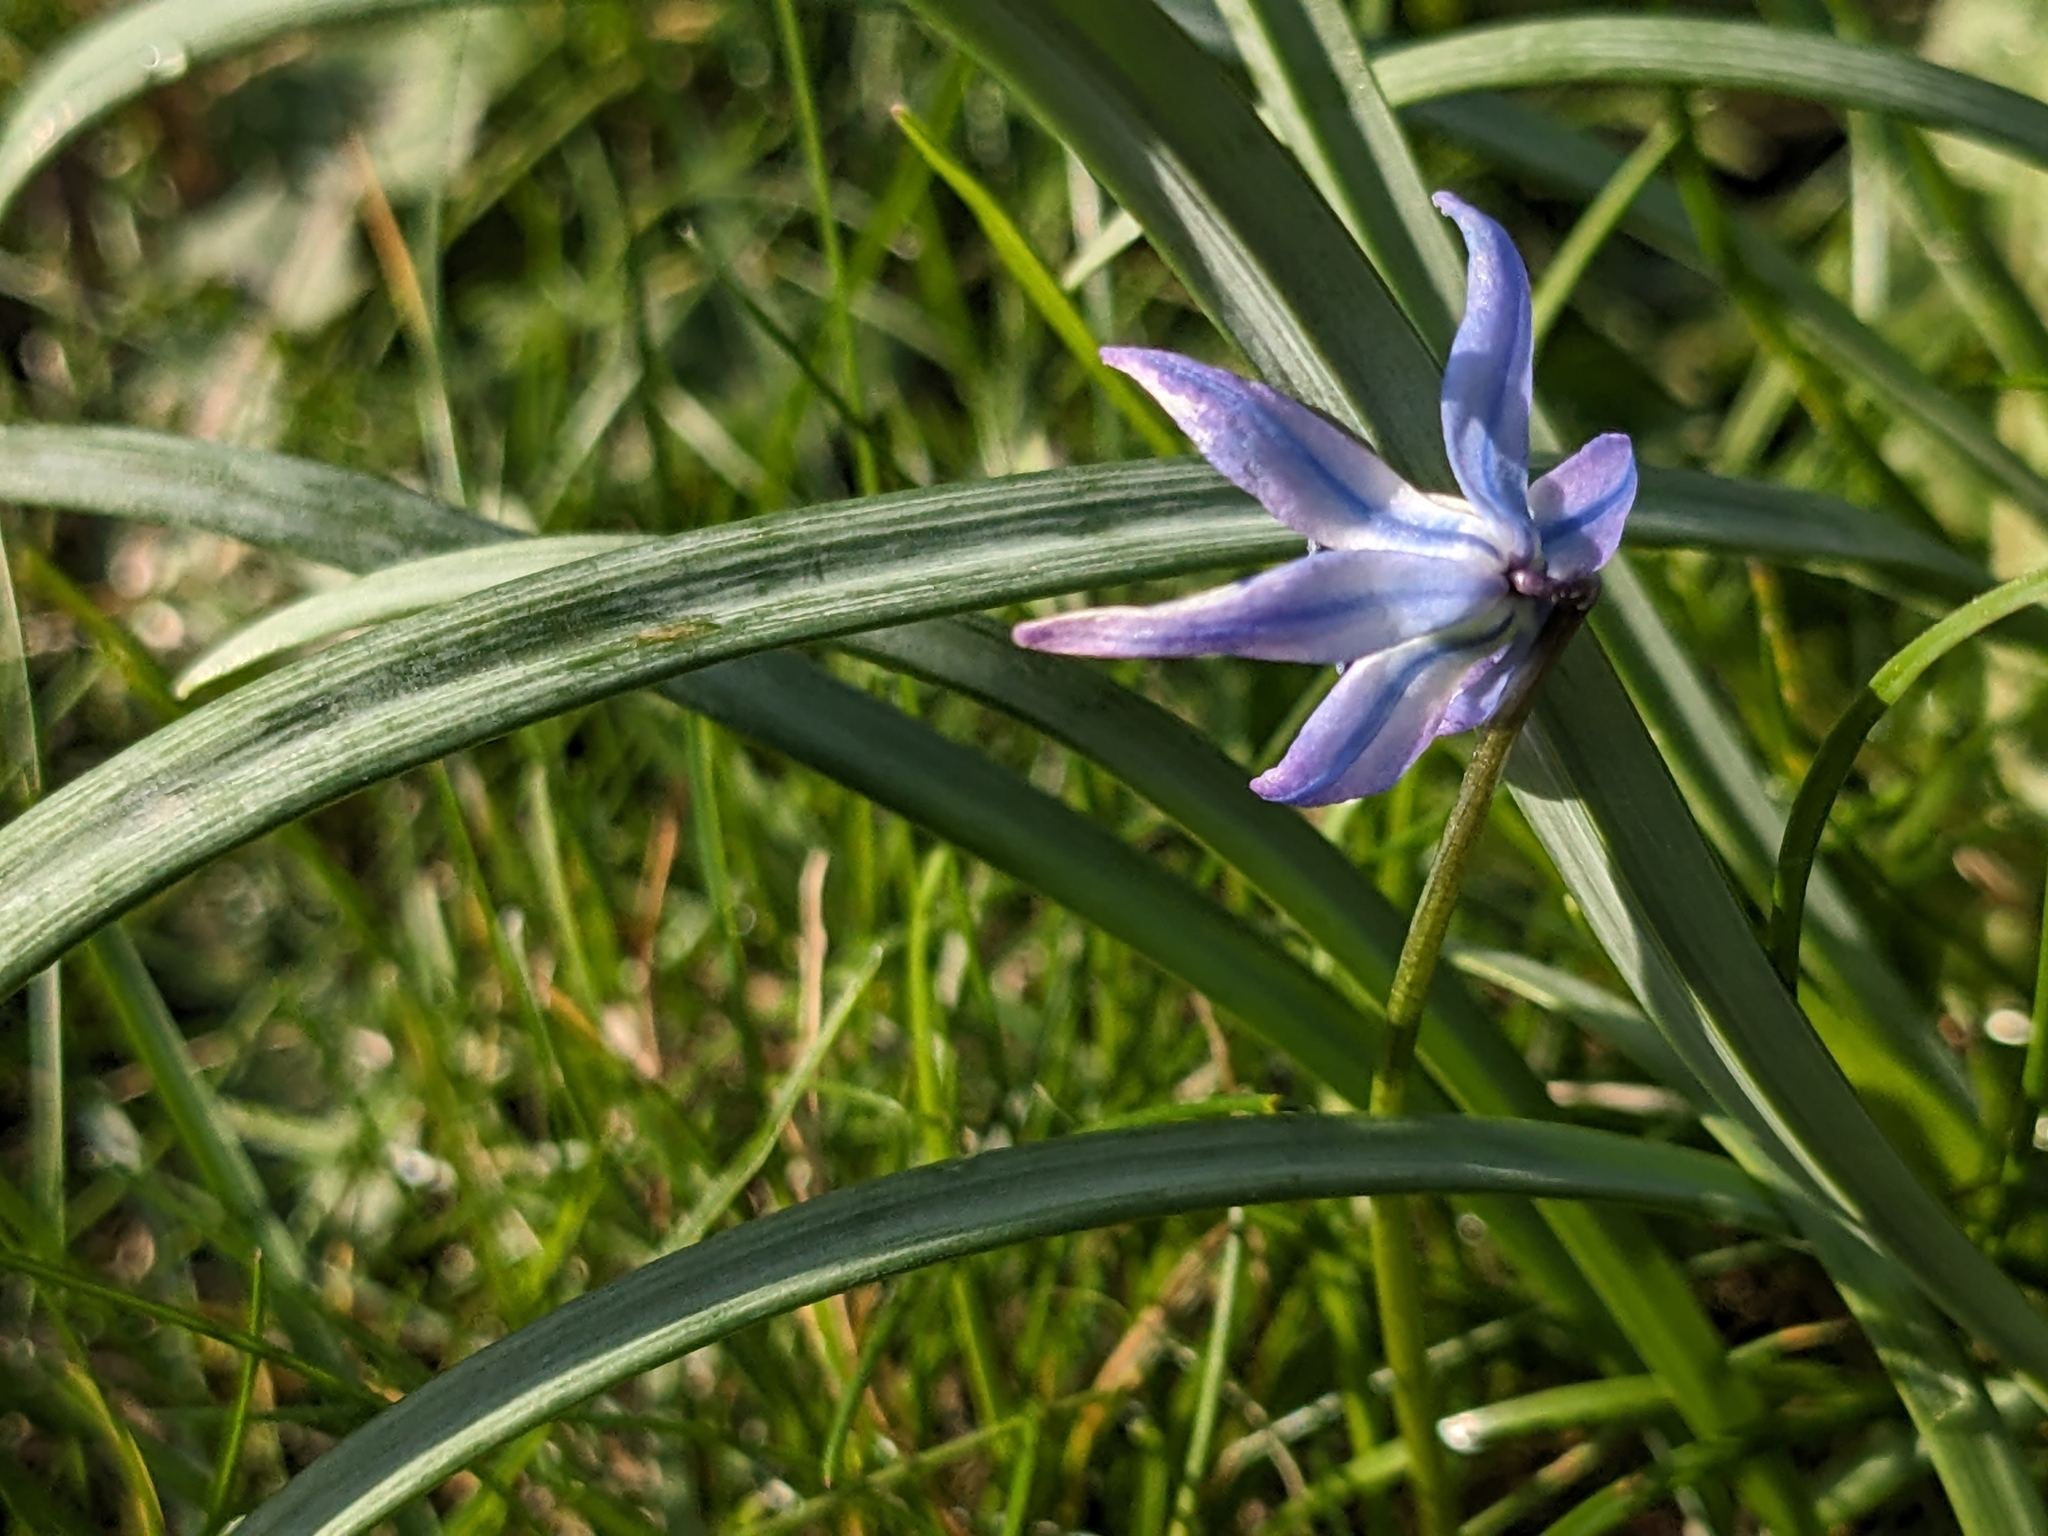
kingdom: Plantae
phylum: Tracheophyta
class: Liliopsida
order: Asparagales
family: Asparagaceae
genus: Scilla
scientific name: Scilla siberica
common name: Siberian squill
